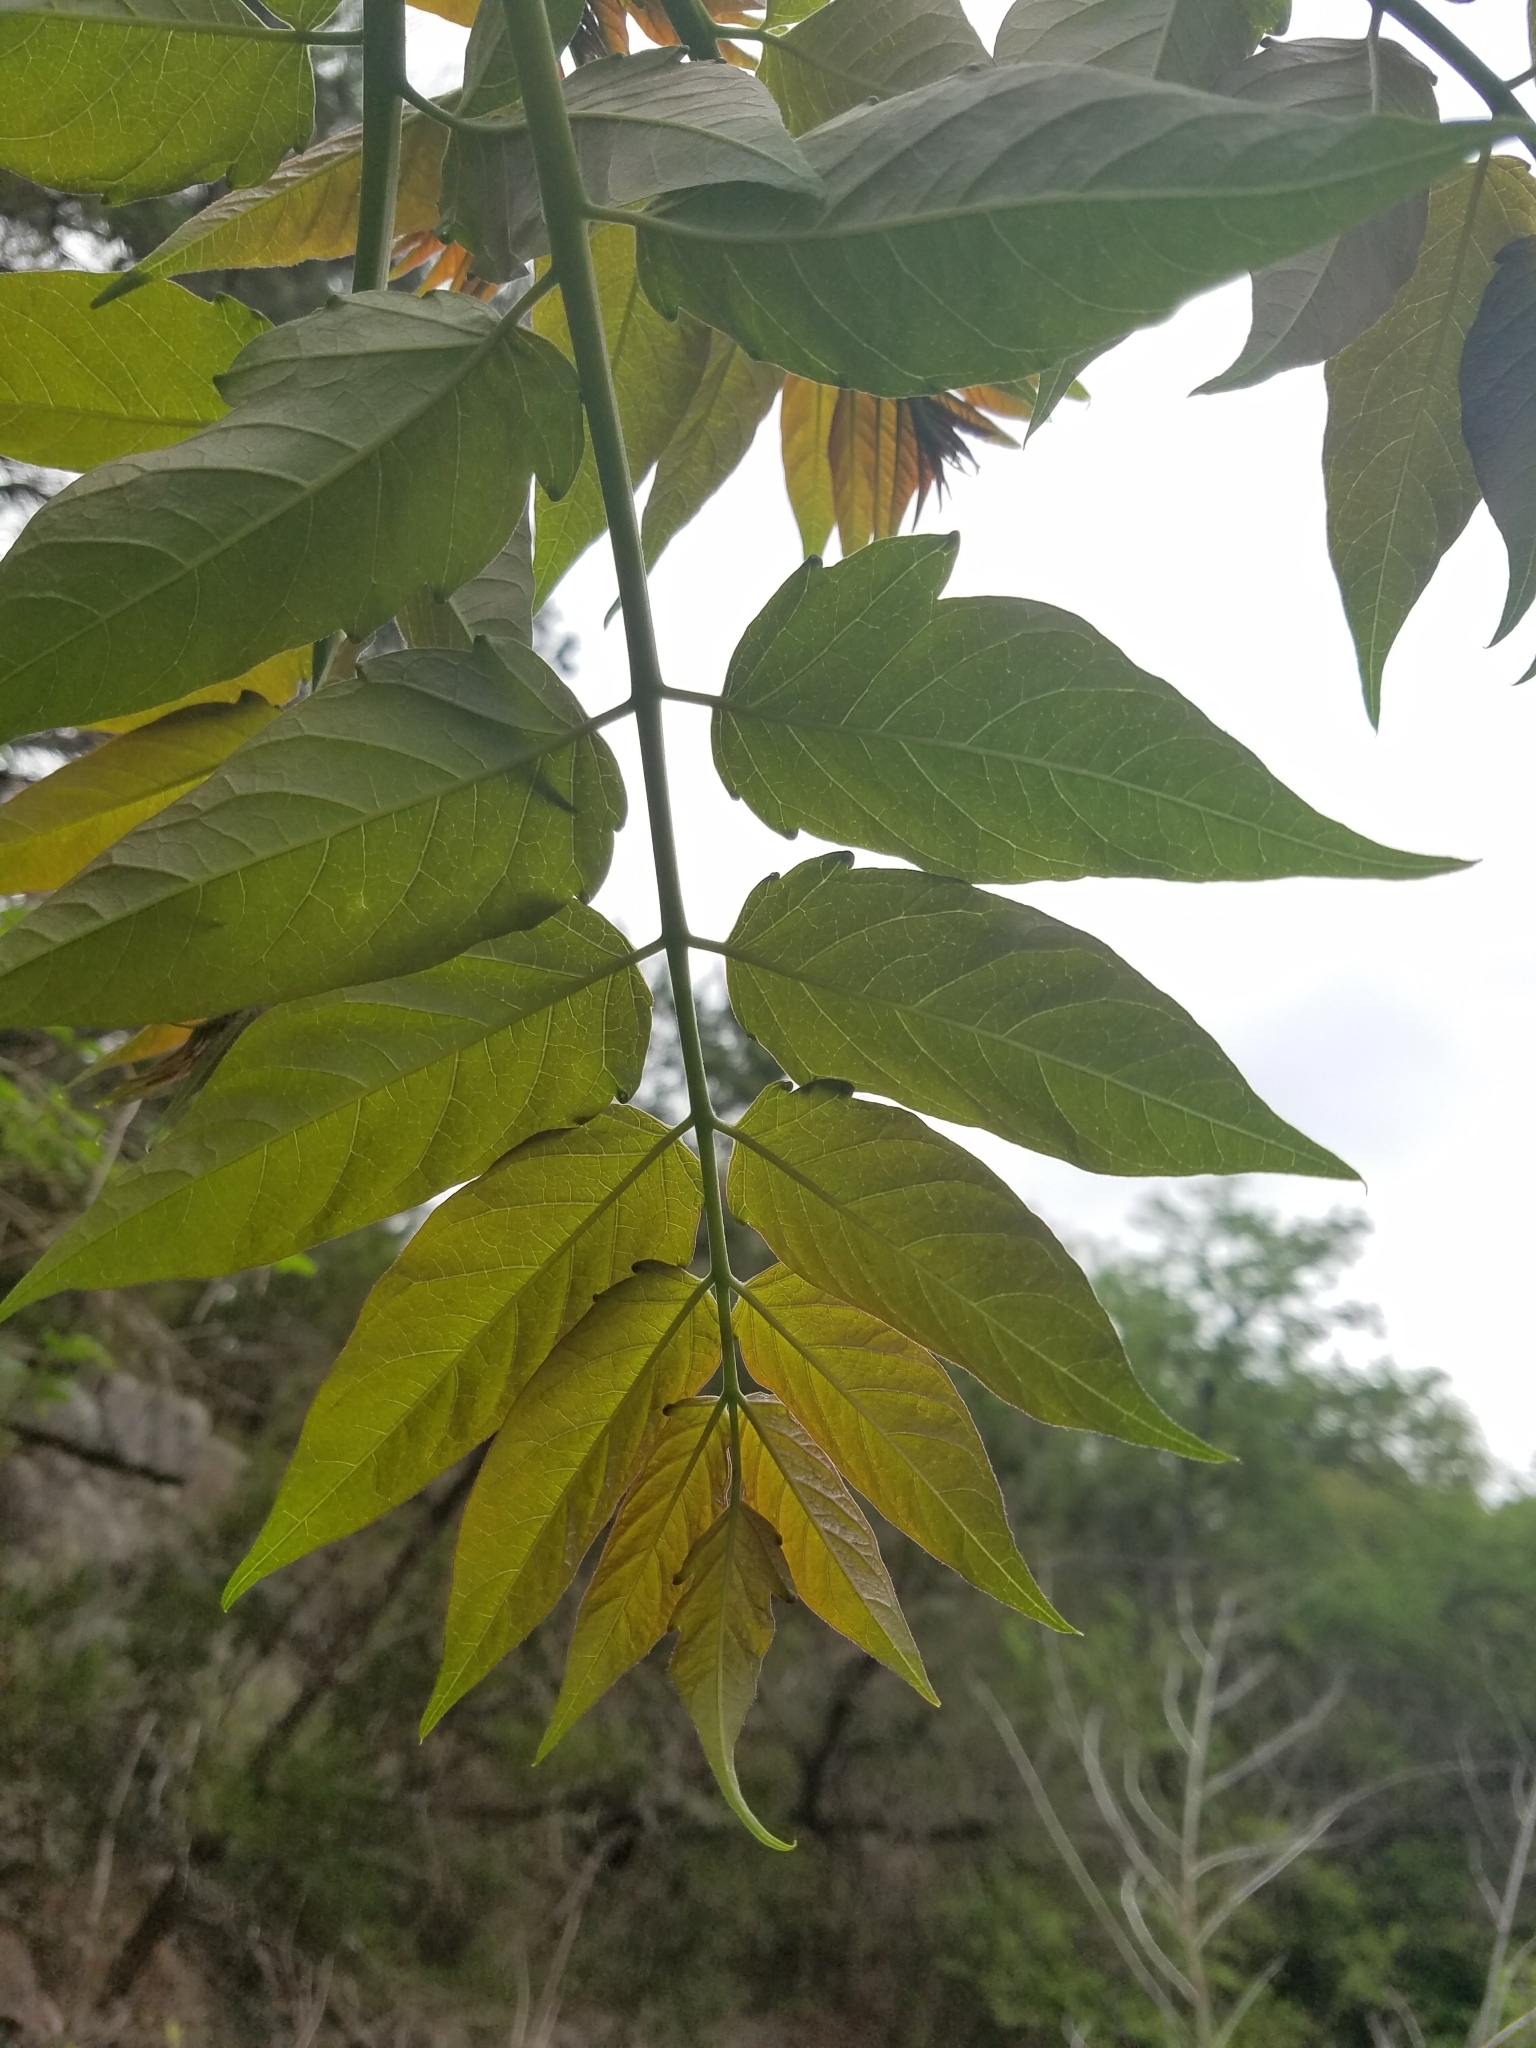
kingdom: Plantae
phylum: Tracheophyta
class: Magnoliopsida
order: Sapindales
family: Simaroubaceae
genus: Ailanthus
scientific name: Ailanthus altissima
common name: Tree-of-heaven
